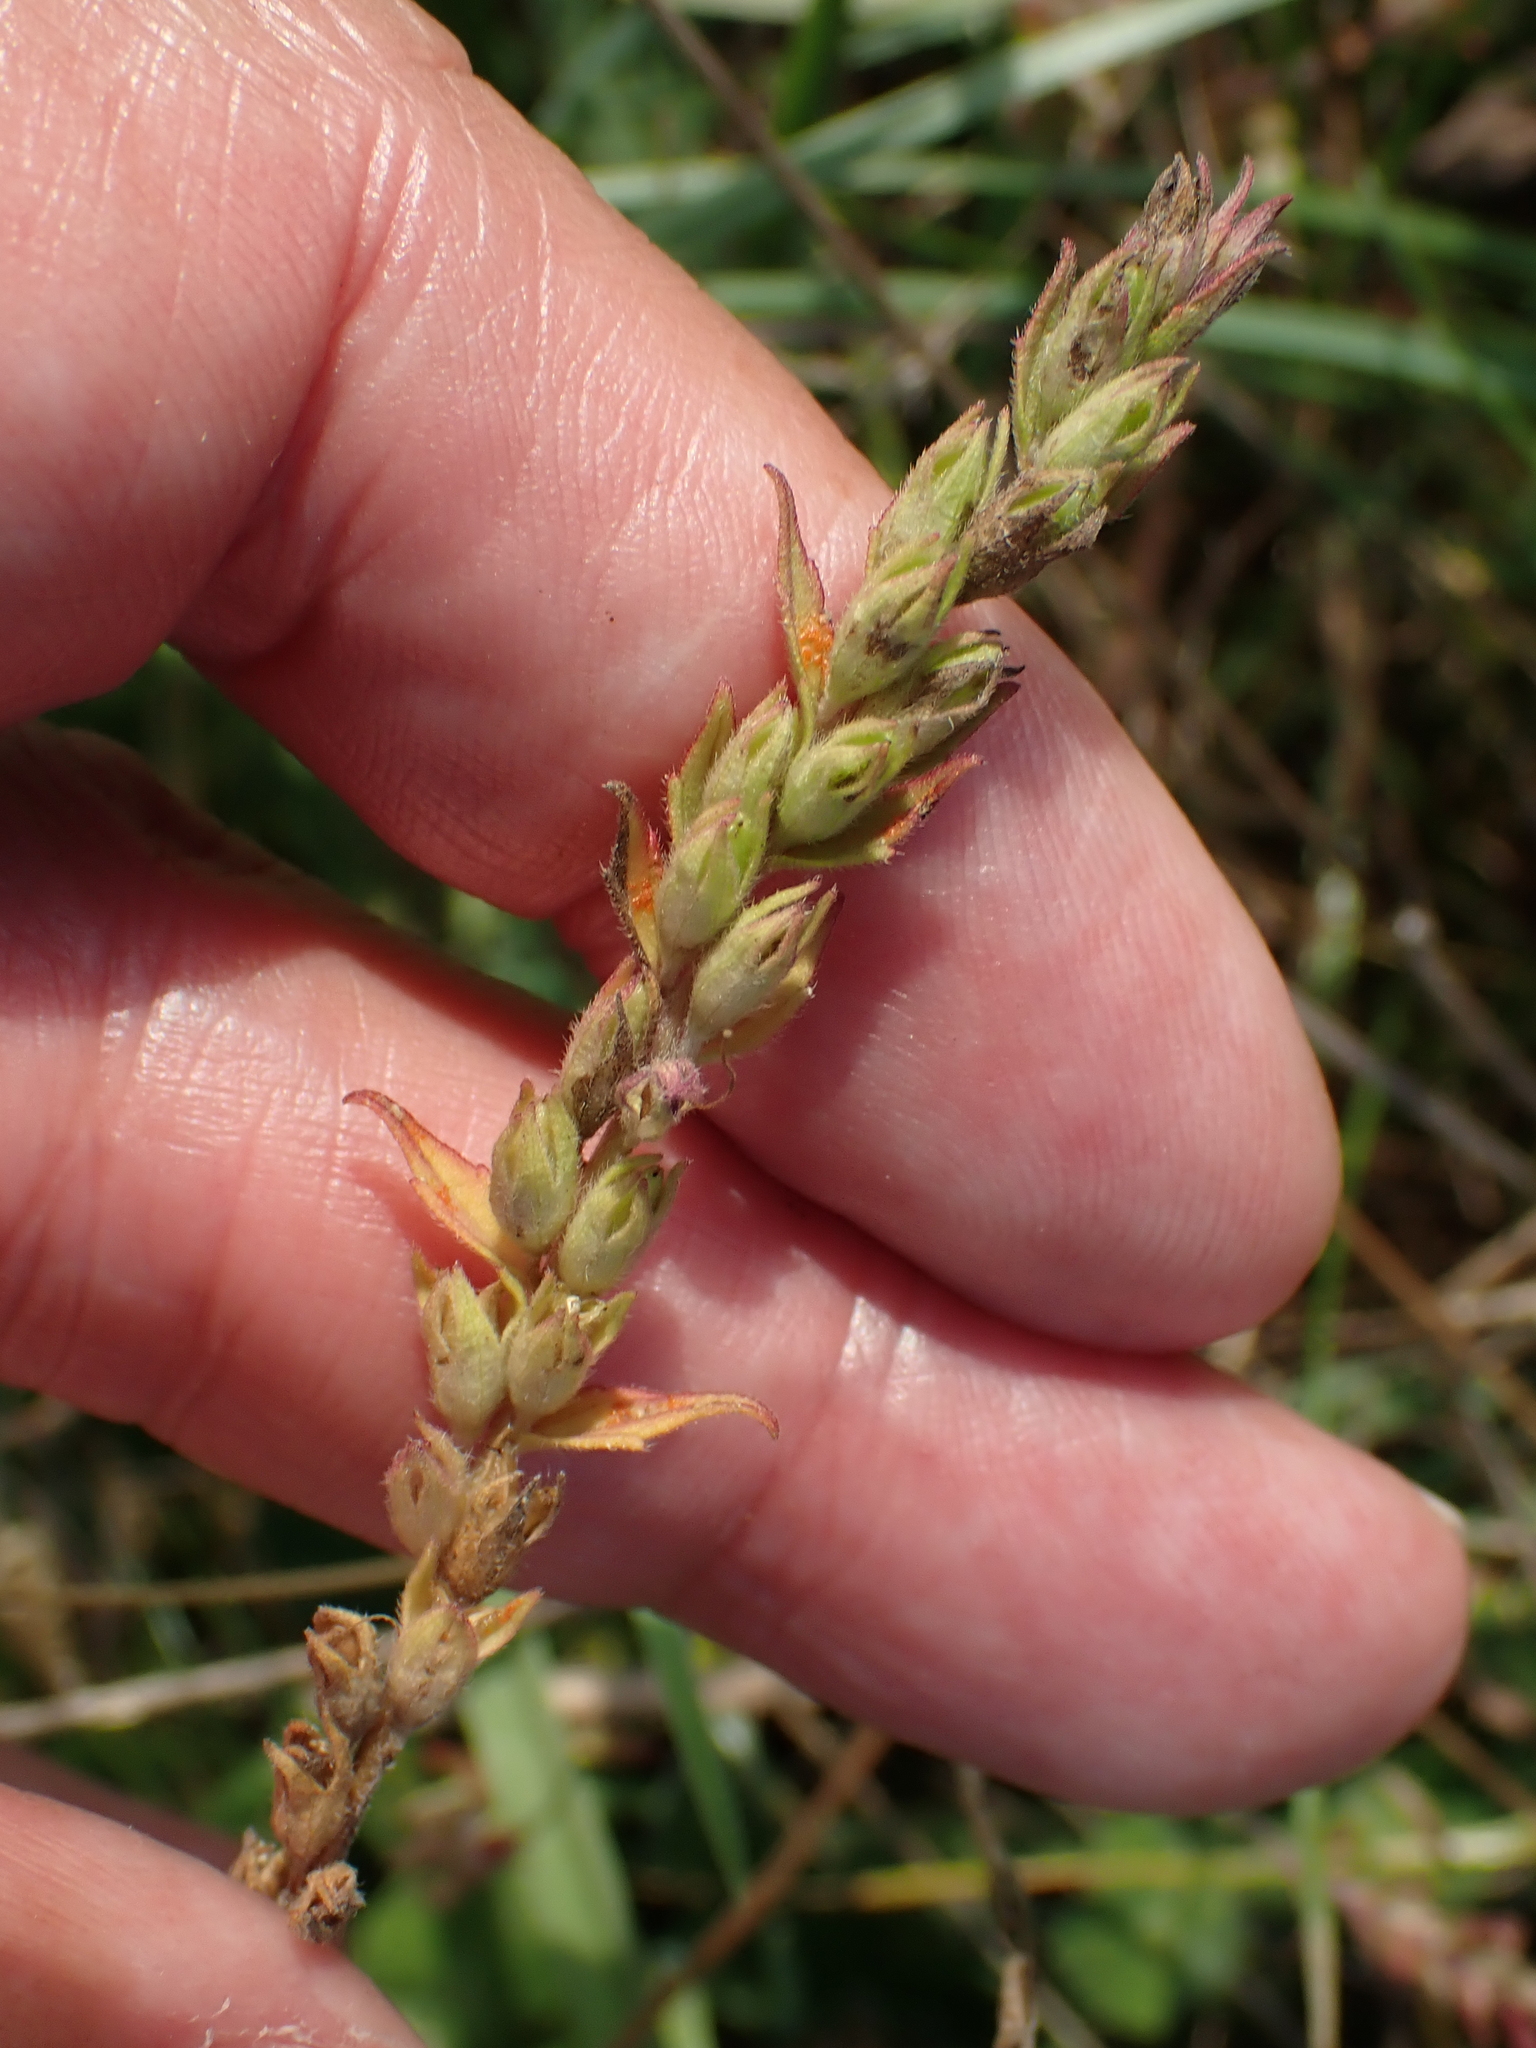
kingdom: Plantae
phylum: Tracheophyta
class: Magnoliopsida
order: Lamiales
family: Orobanchaceae
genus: Odontites
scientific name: Odontites vulgaris
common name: Broomrape
